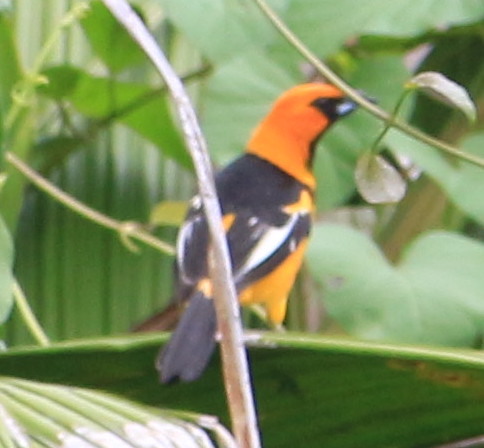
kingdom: Animalia
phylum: Chordata
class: Aves
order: Passeriformes
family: Icteridae
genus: Icterus
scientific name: Icterus pectoralis
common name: Spot-breasted oriole
